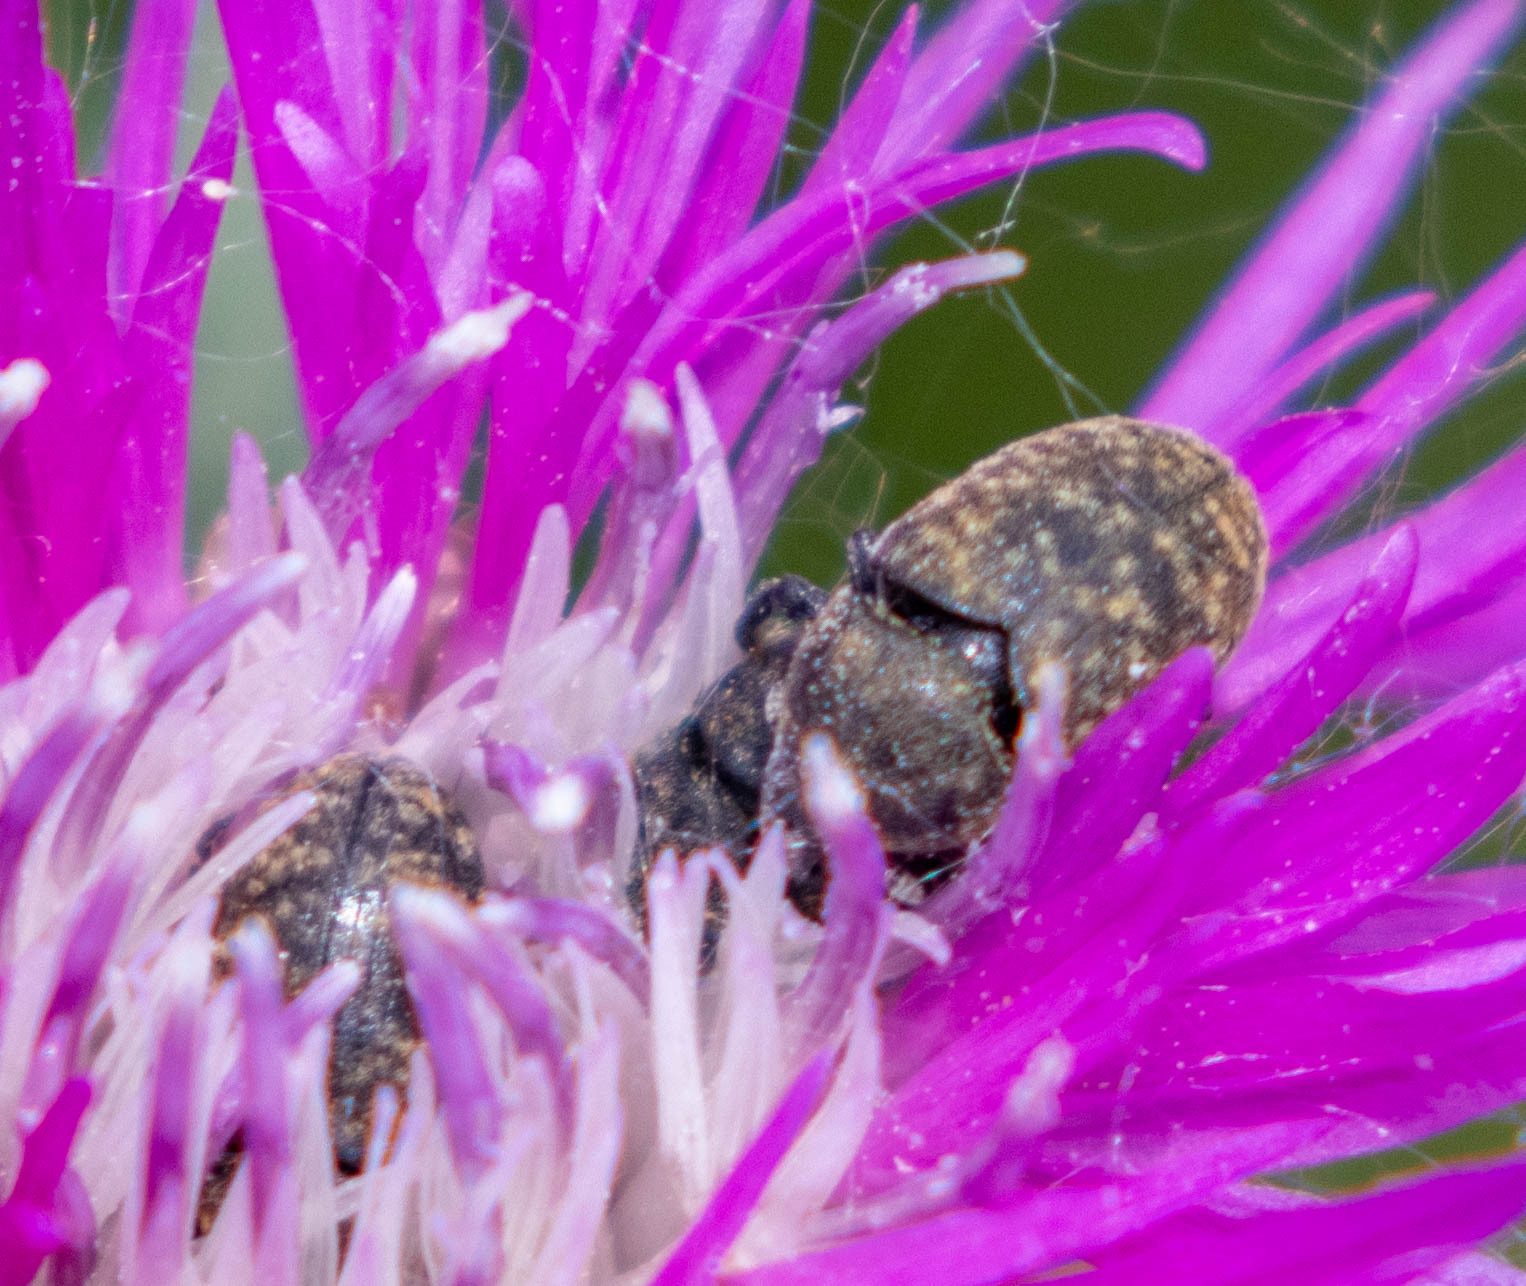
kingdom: Animalia
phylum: Arthropoda
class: Insecta
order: Coleoptera
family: Curculionidae
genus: Larinus
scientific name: Larinus obtusus
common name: Weevil
